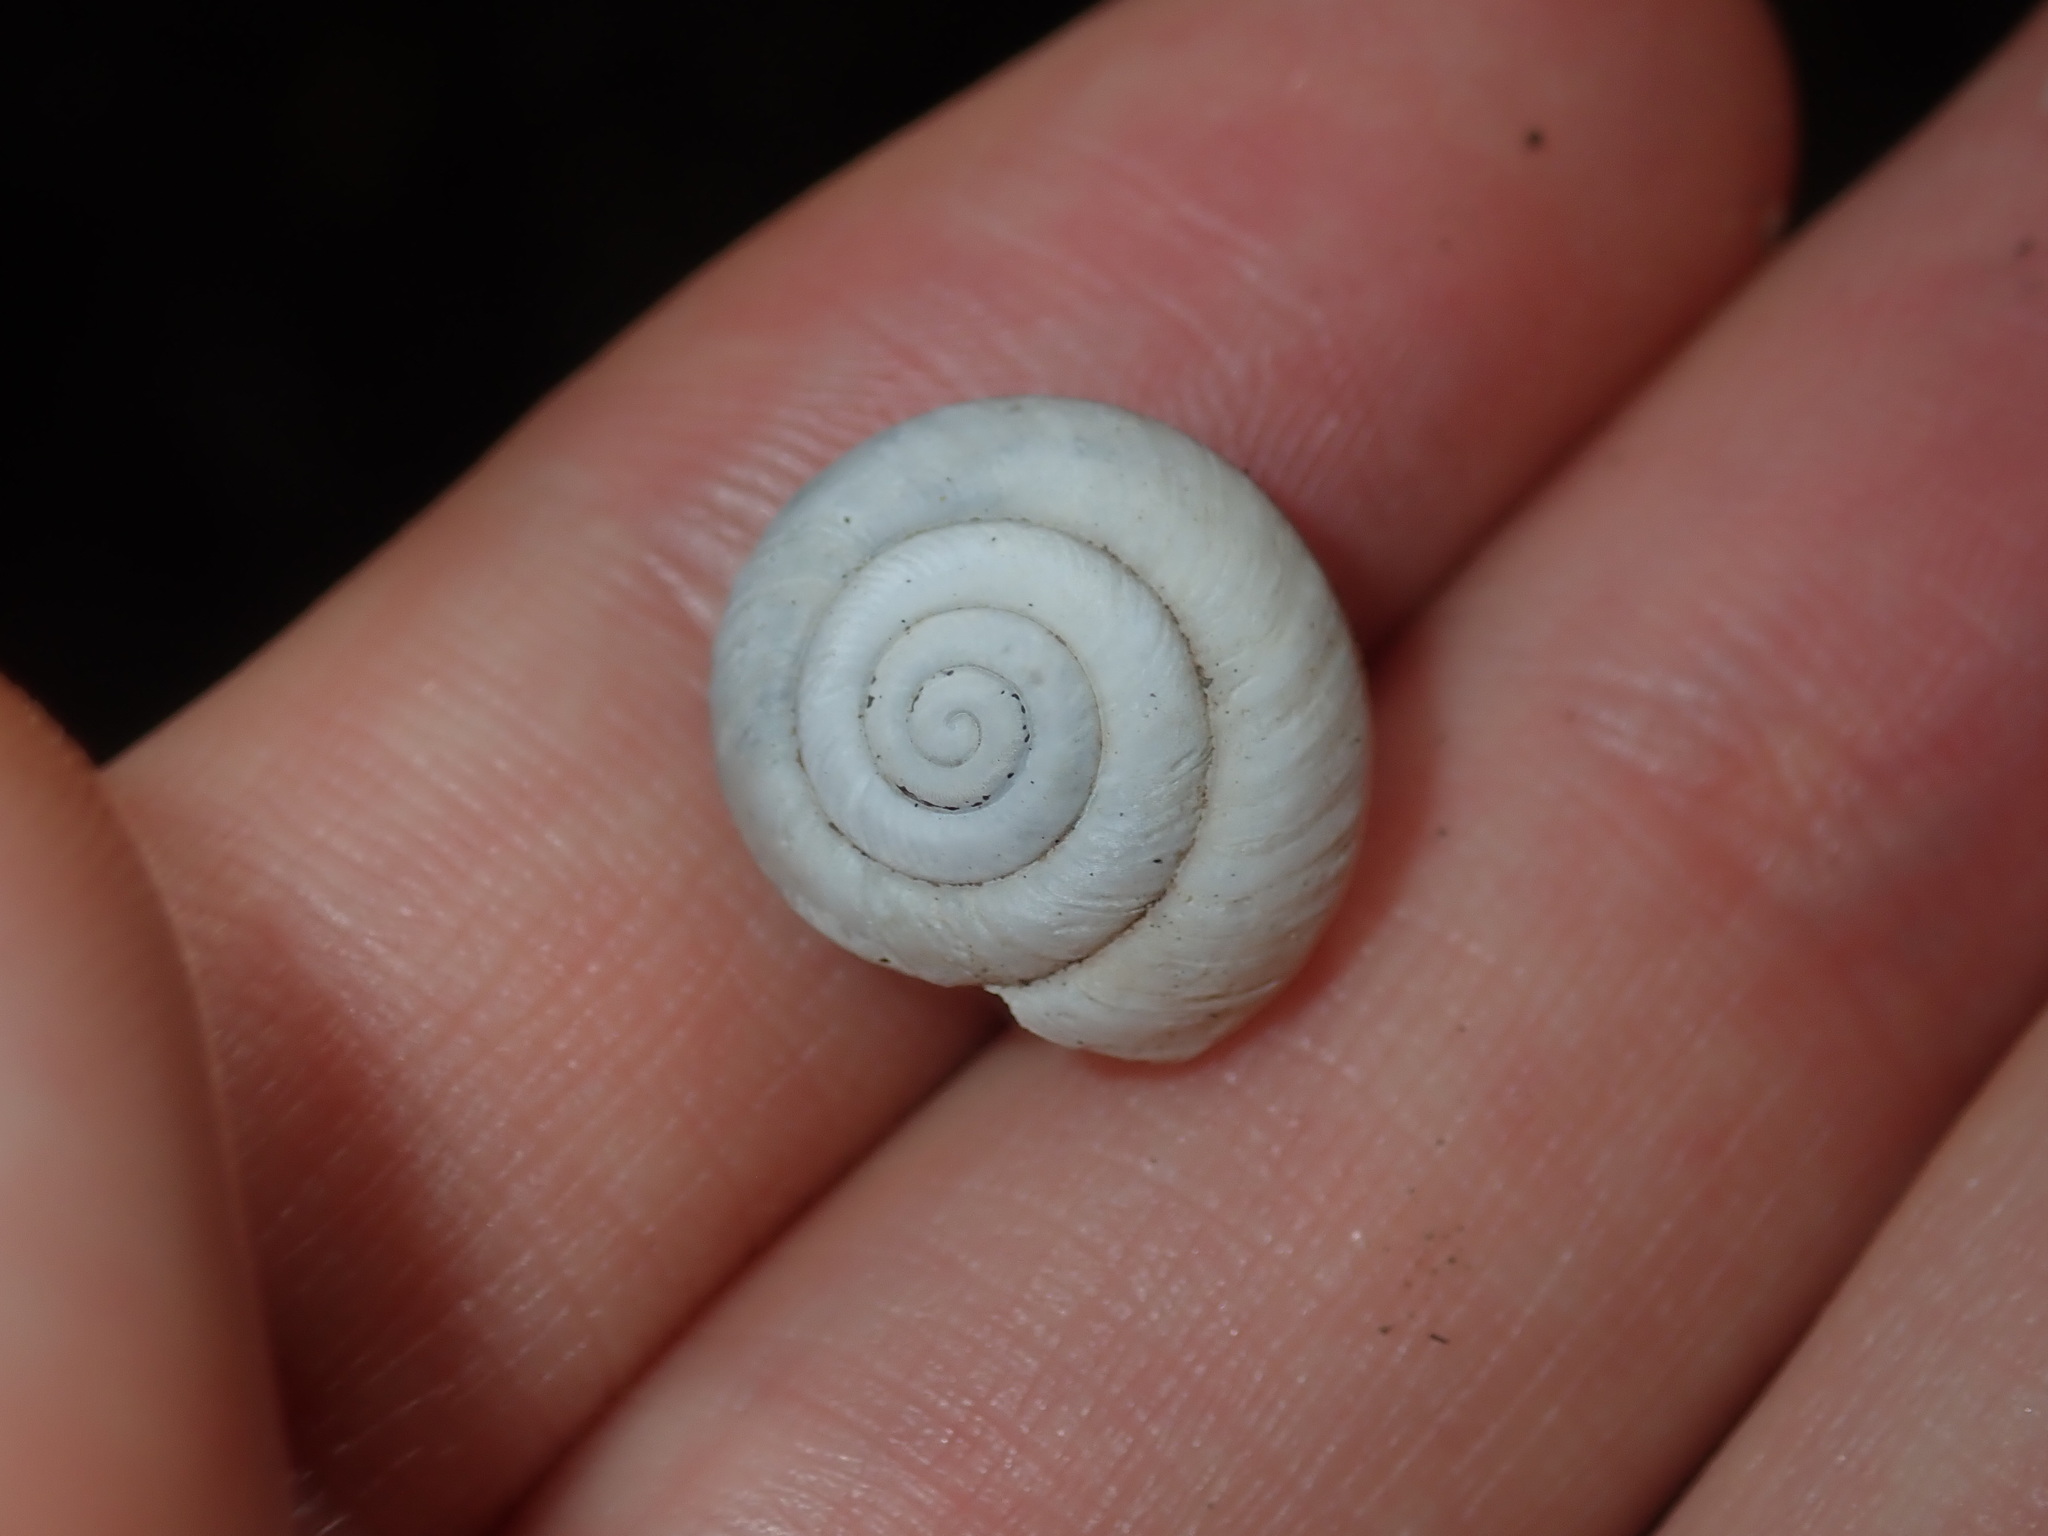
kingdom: Animalia
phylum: Mollusca
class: Gastropoda
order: Stylommatophora
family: Camaenidae
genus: Sauroconcha
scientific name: Sauroconcha sheai
